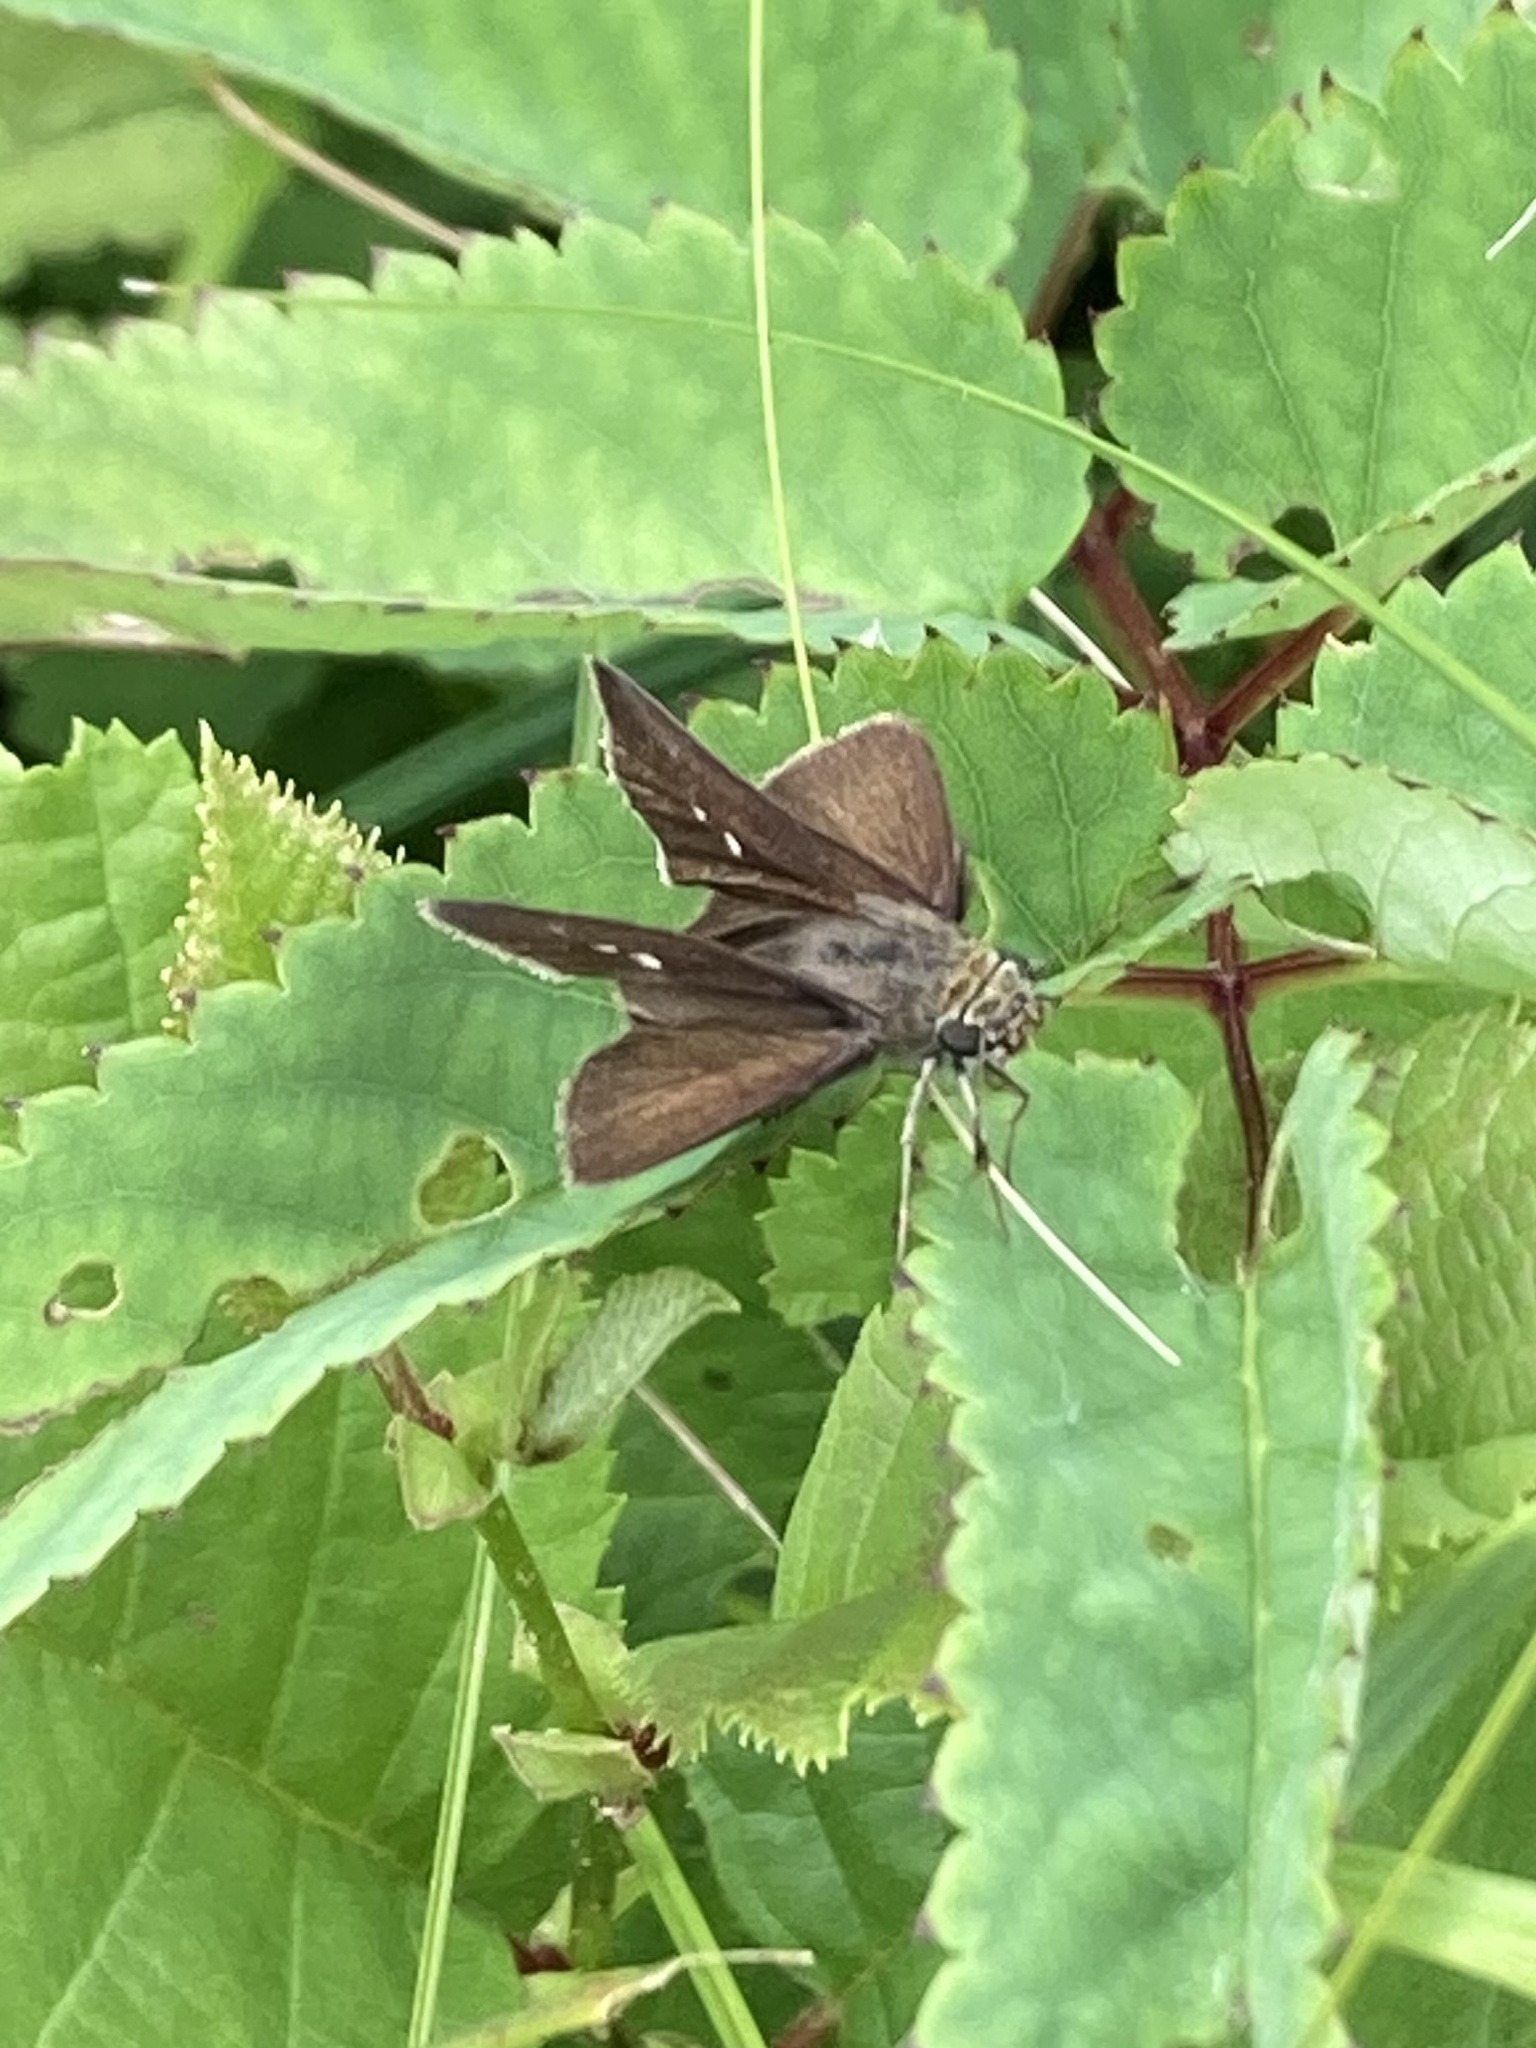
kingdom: Animalia
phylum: Arthropoda
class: Insecta
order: Lepidoptera
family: Hesperiidae
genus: Euphyes
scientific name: Euphyes vestris
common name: Dun skipper
